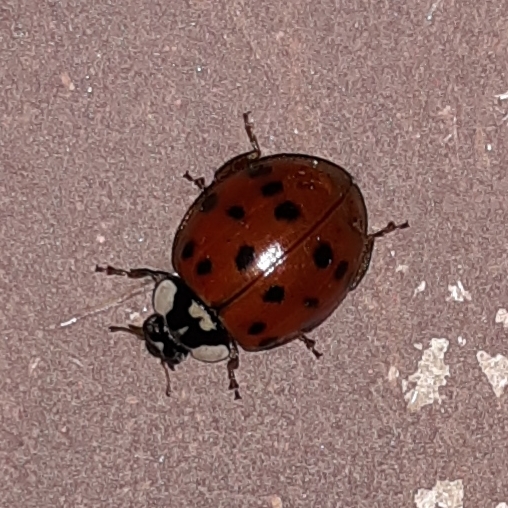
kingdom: Animalia
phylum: Arthropoda
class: Insecta
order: Coleoptera
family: Coccinellidae
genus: Harmonia
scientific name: Harmonia axyridis
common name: Harlequin ladybird
